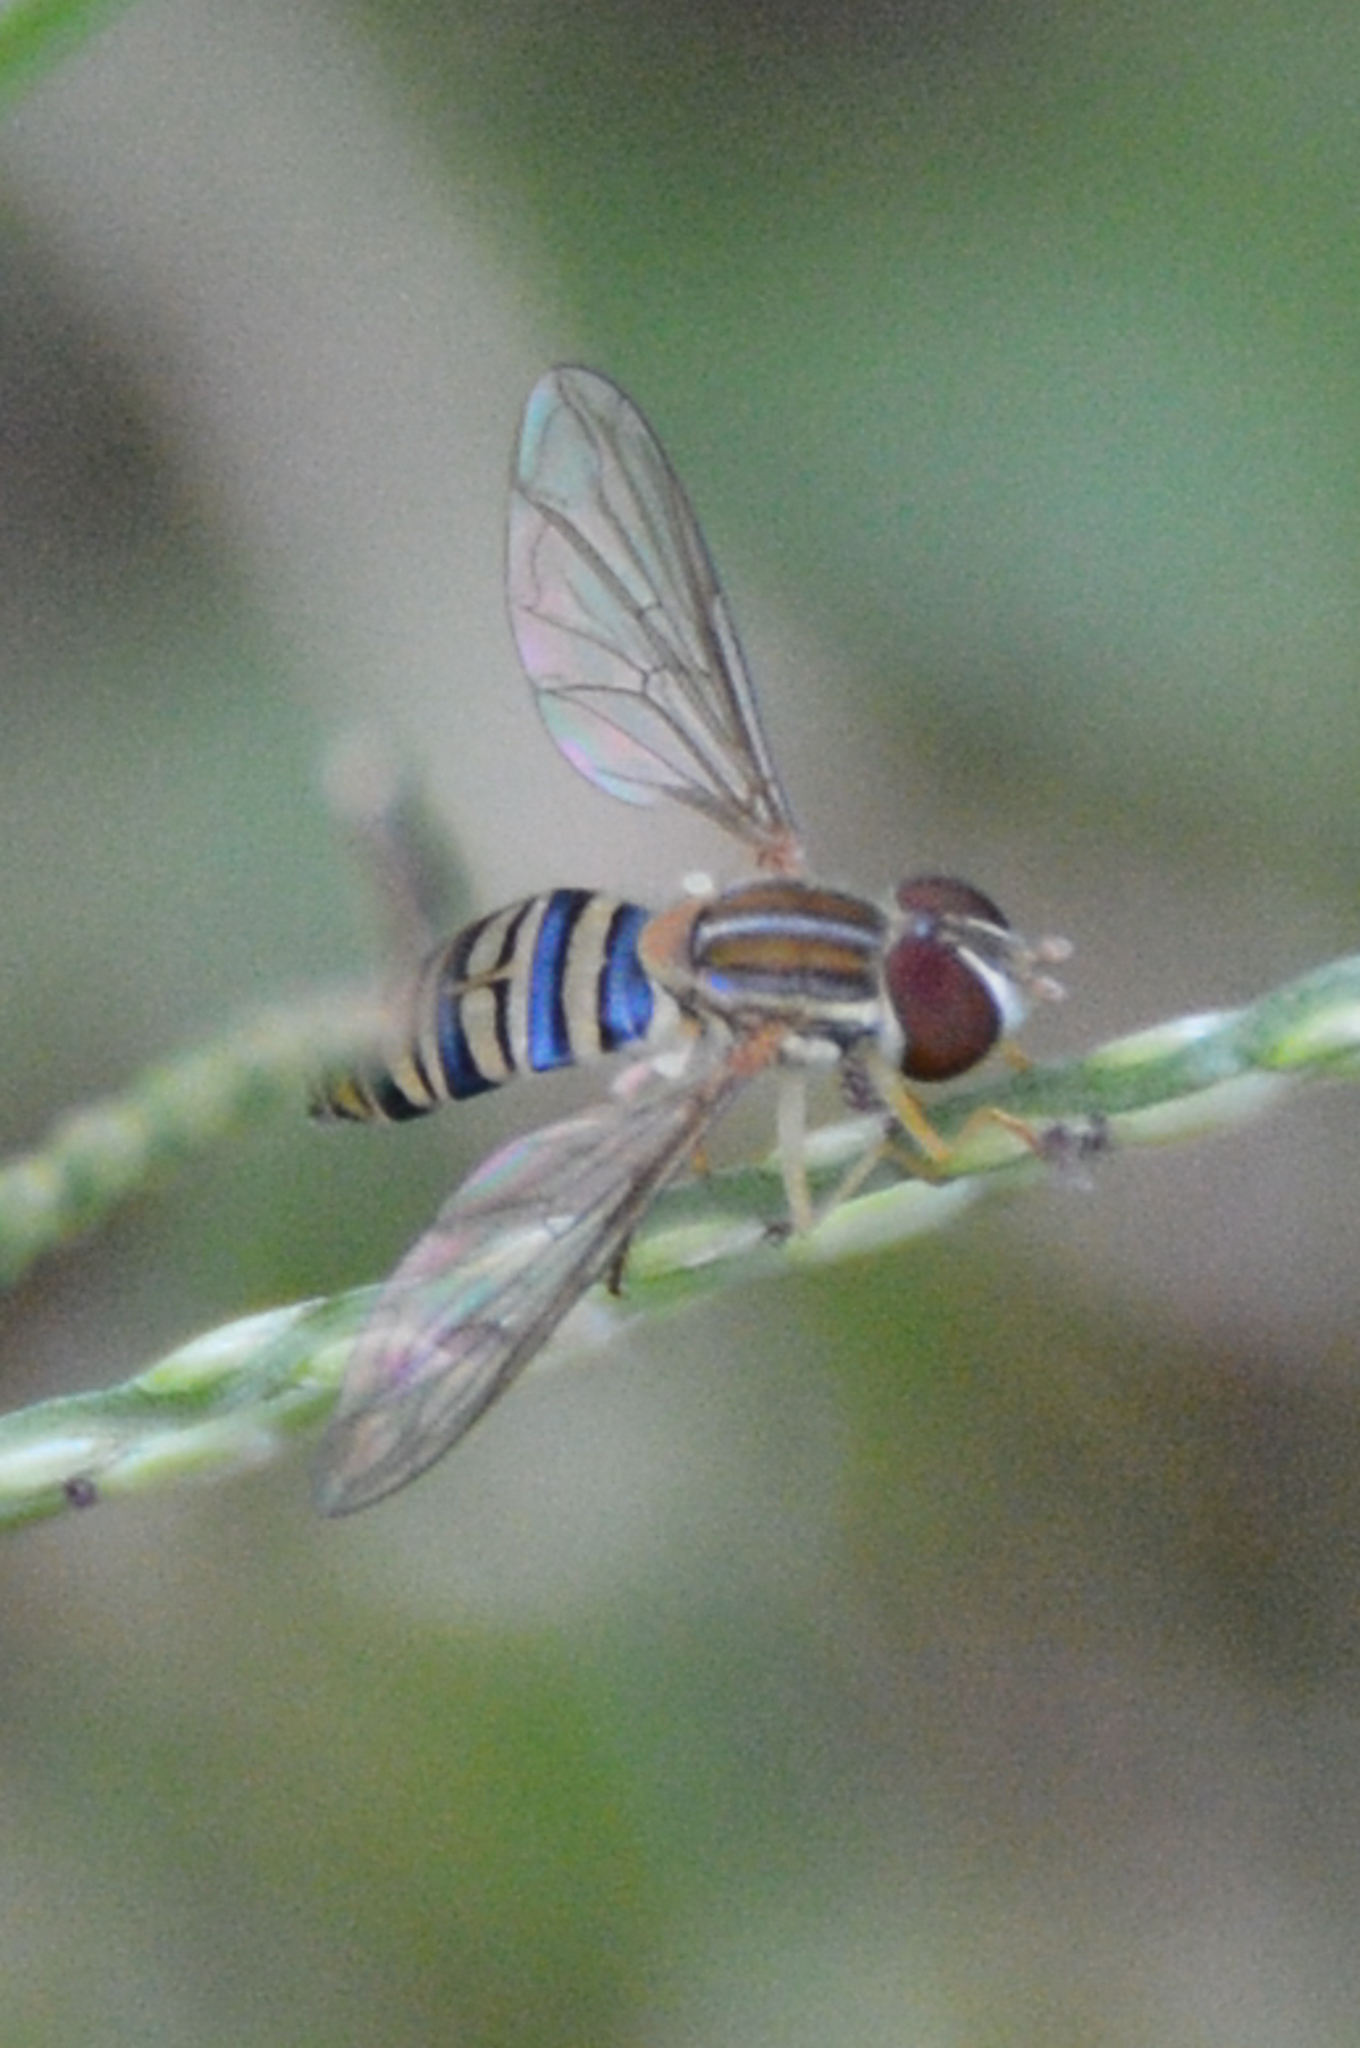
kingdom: Animalia
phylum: Arthropoda
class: Insecta
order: Diptera
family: Syrphidae
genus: Toxomerus
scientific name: Toxomerus politus
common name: Maize calligrapher
